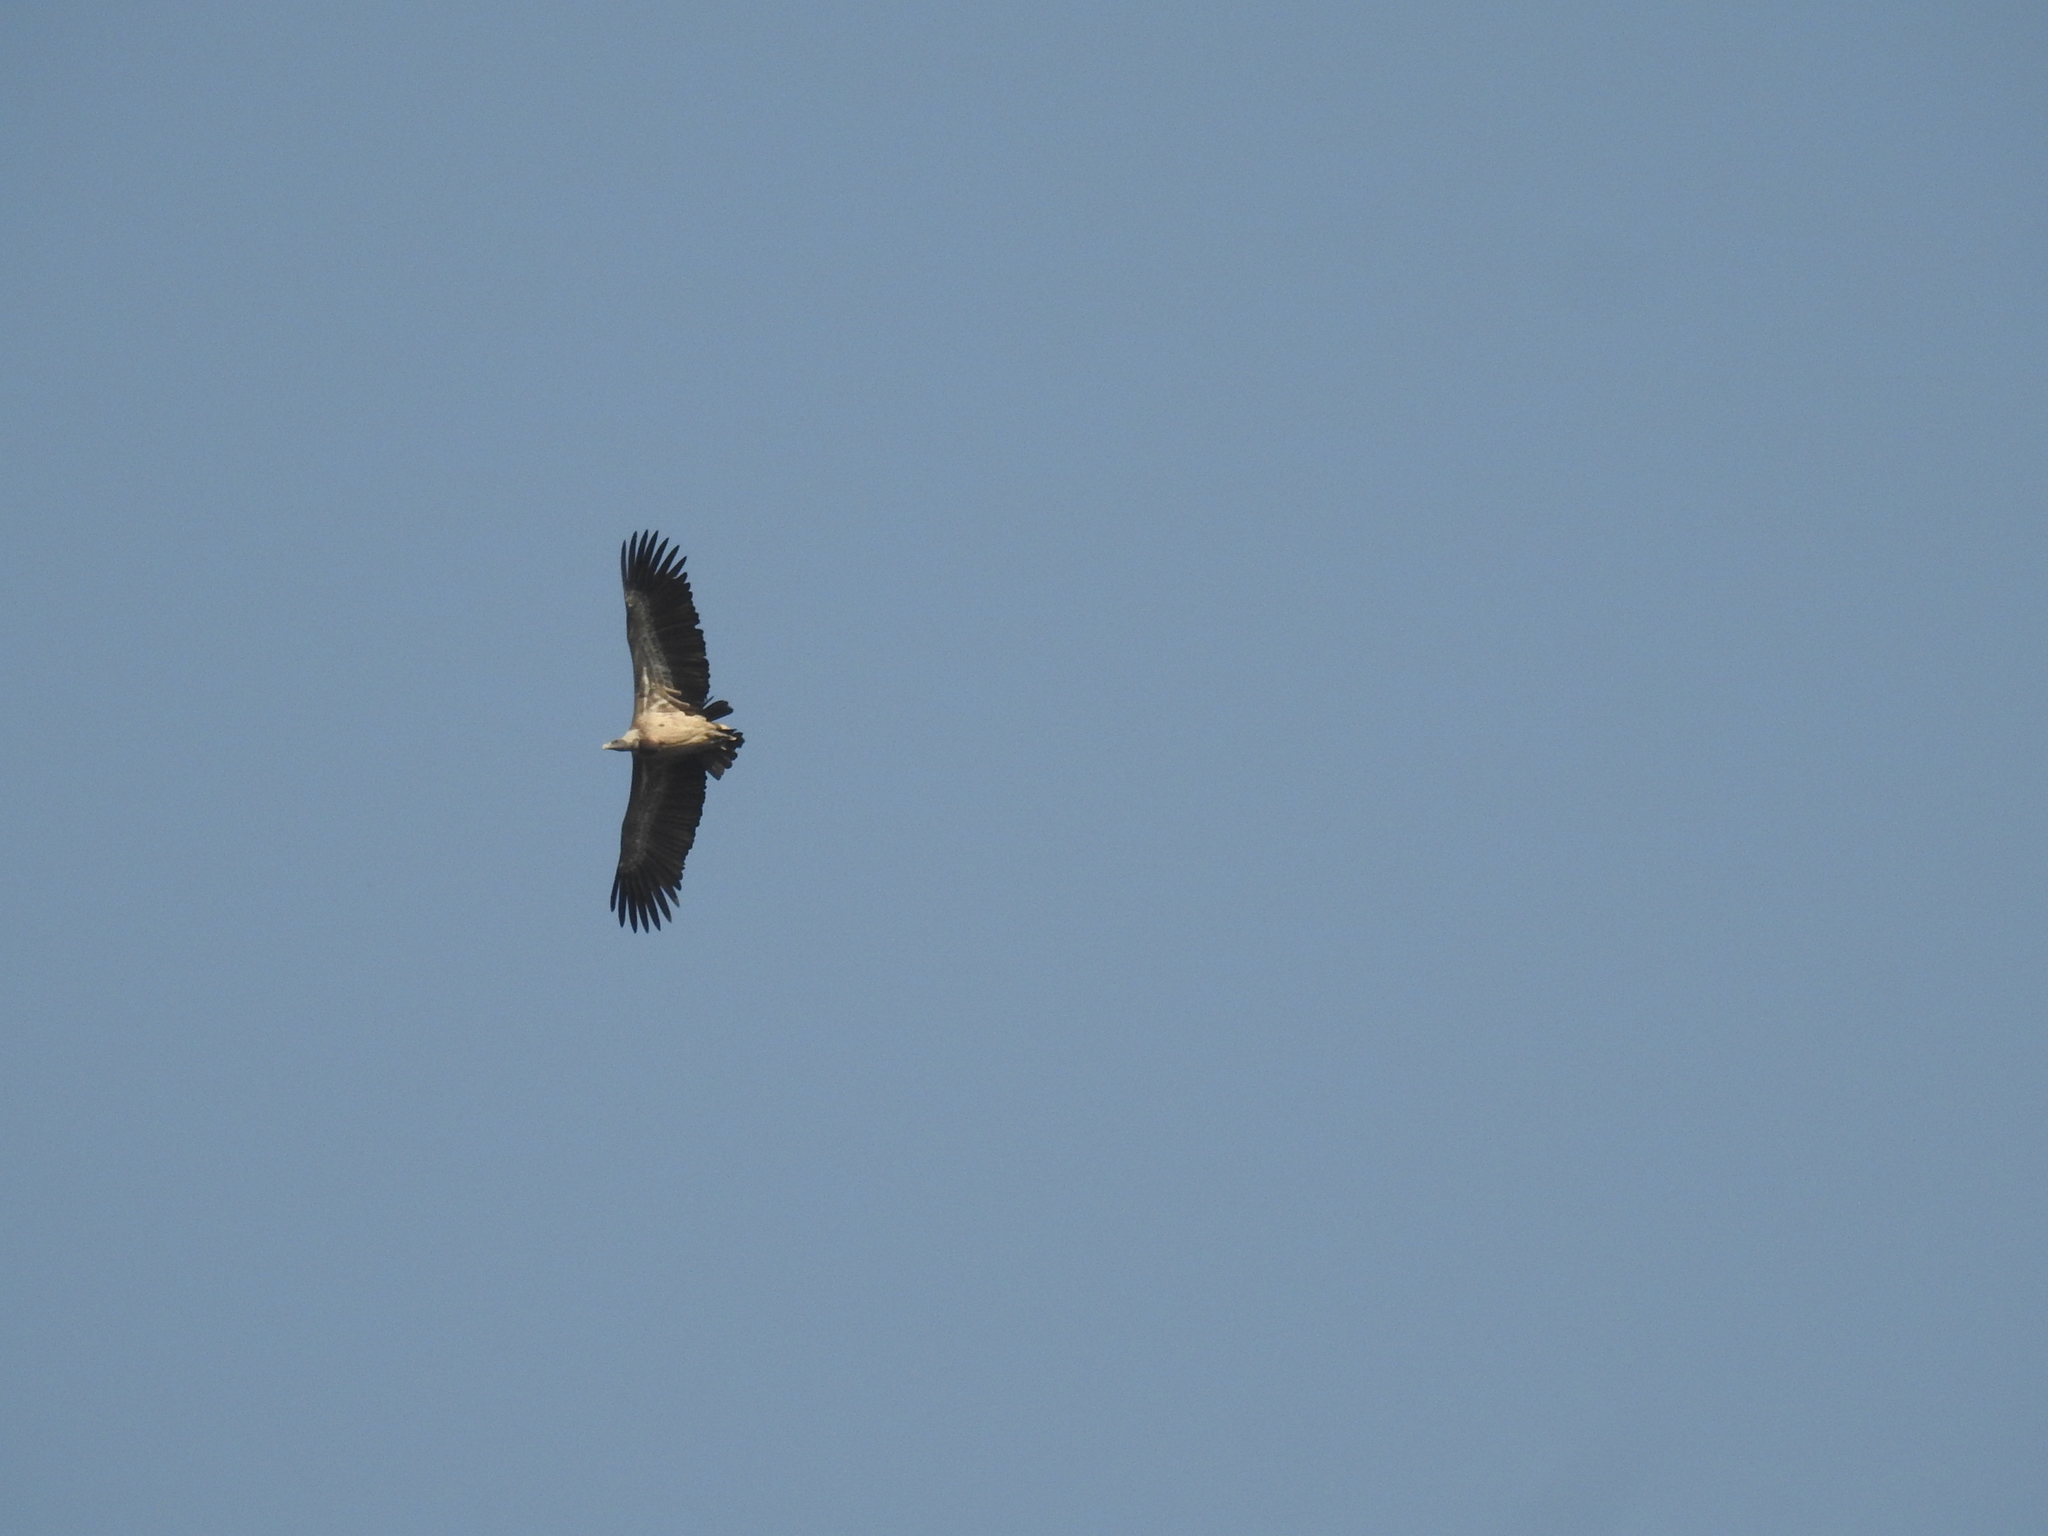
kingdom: Animalia
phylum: Chordata
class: Aves
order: Accipitriformes
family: Accipitridae
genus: Gyps
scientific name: Gyps indicus
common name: Indian vulture
